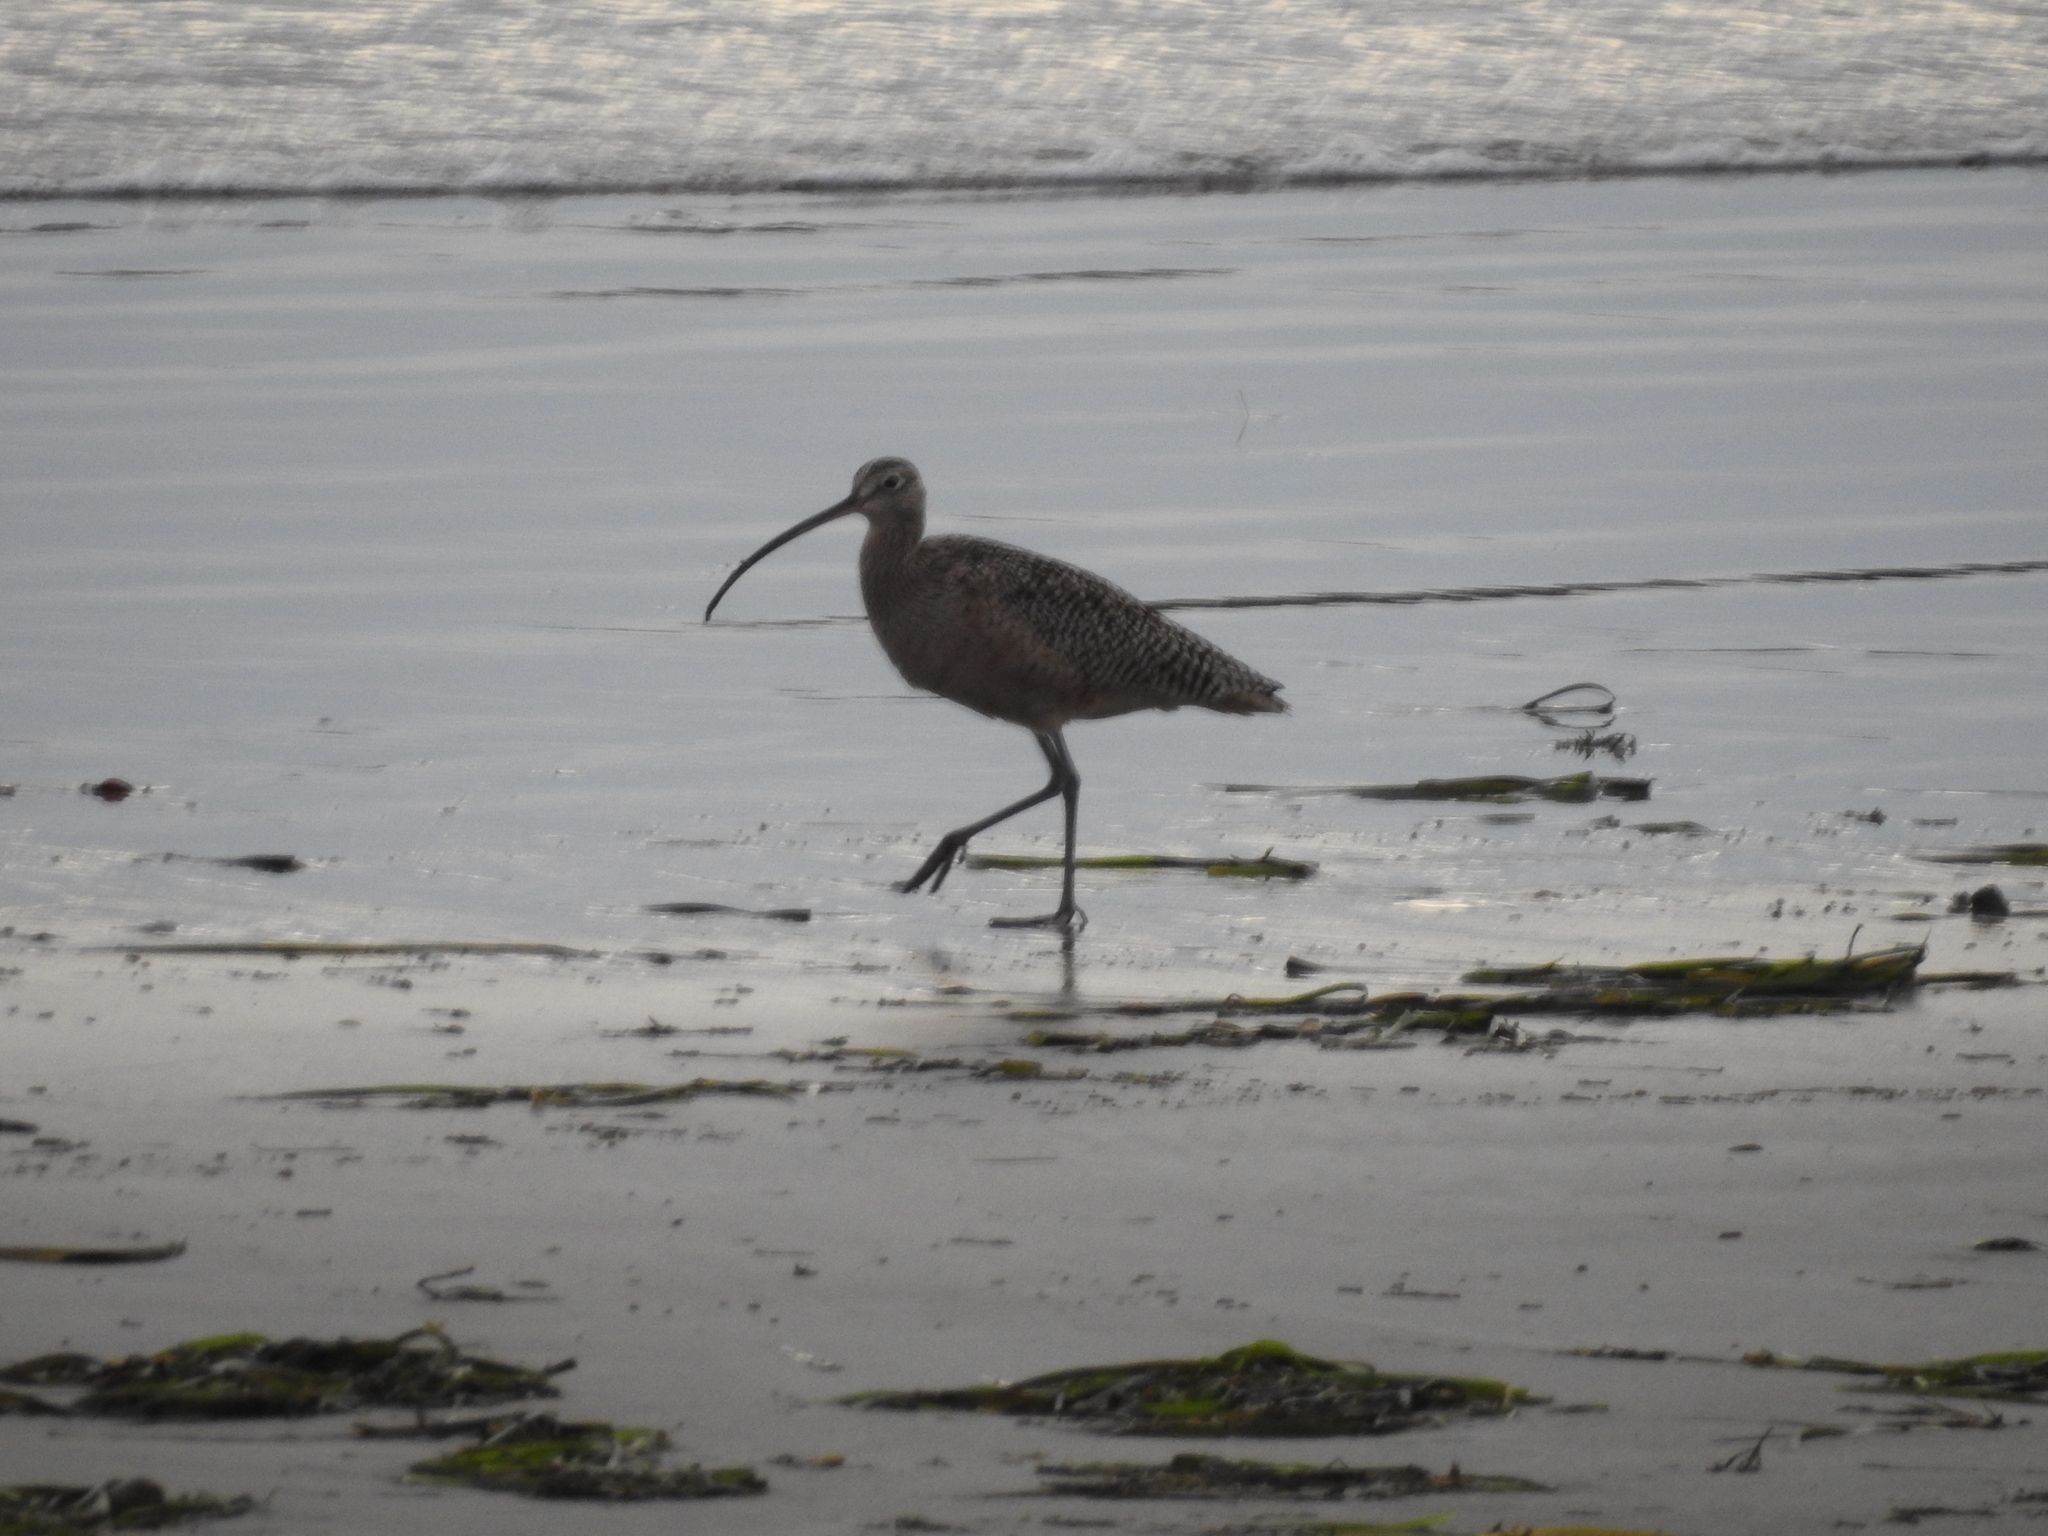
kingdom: Animalia
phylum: Chordata
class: Aves
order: Charadriiformes
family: Scolopacidae
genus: Numenius
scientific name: Numenius americanus
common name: Long-billed curlew
